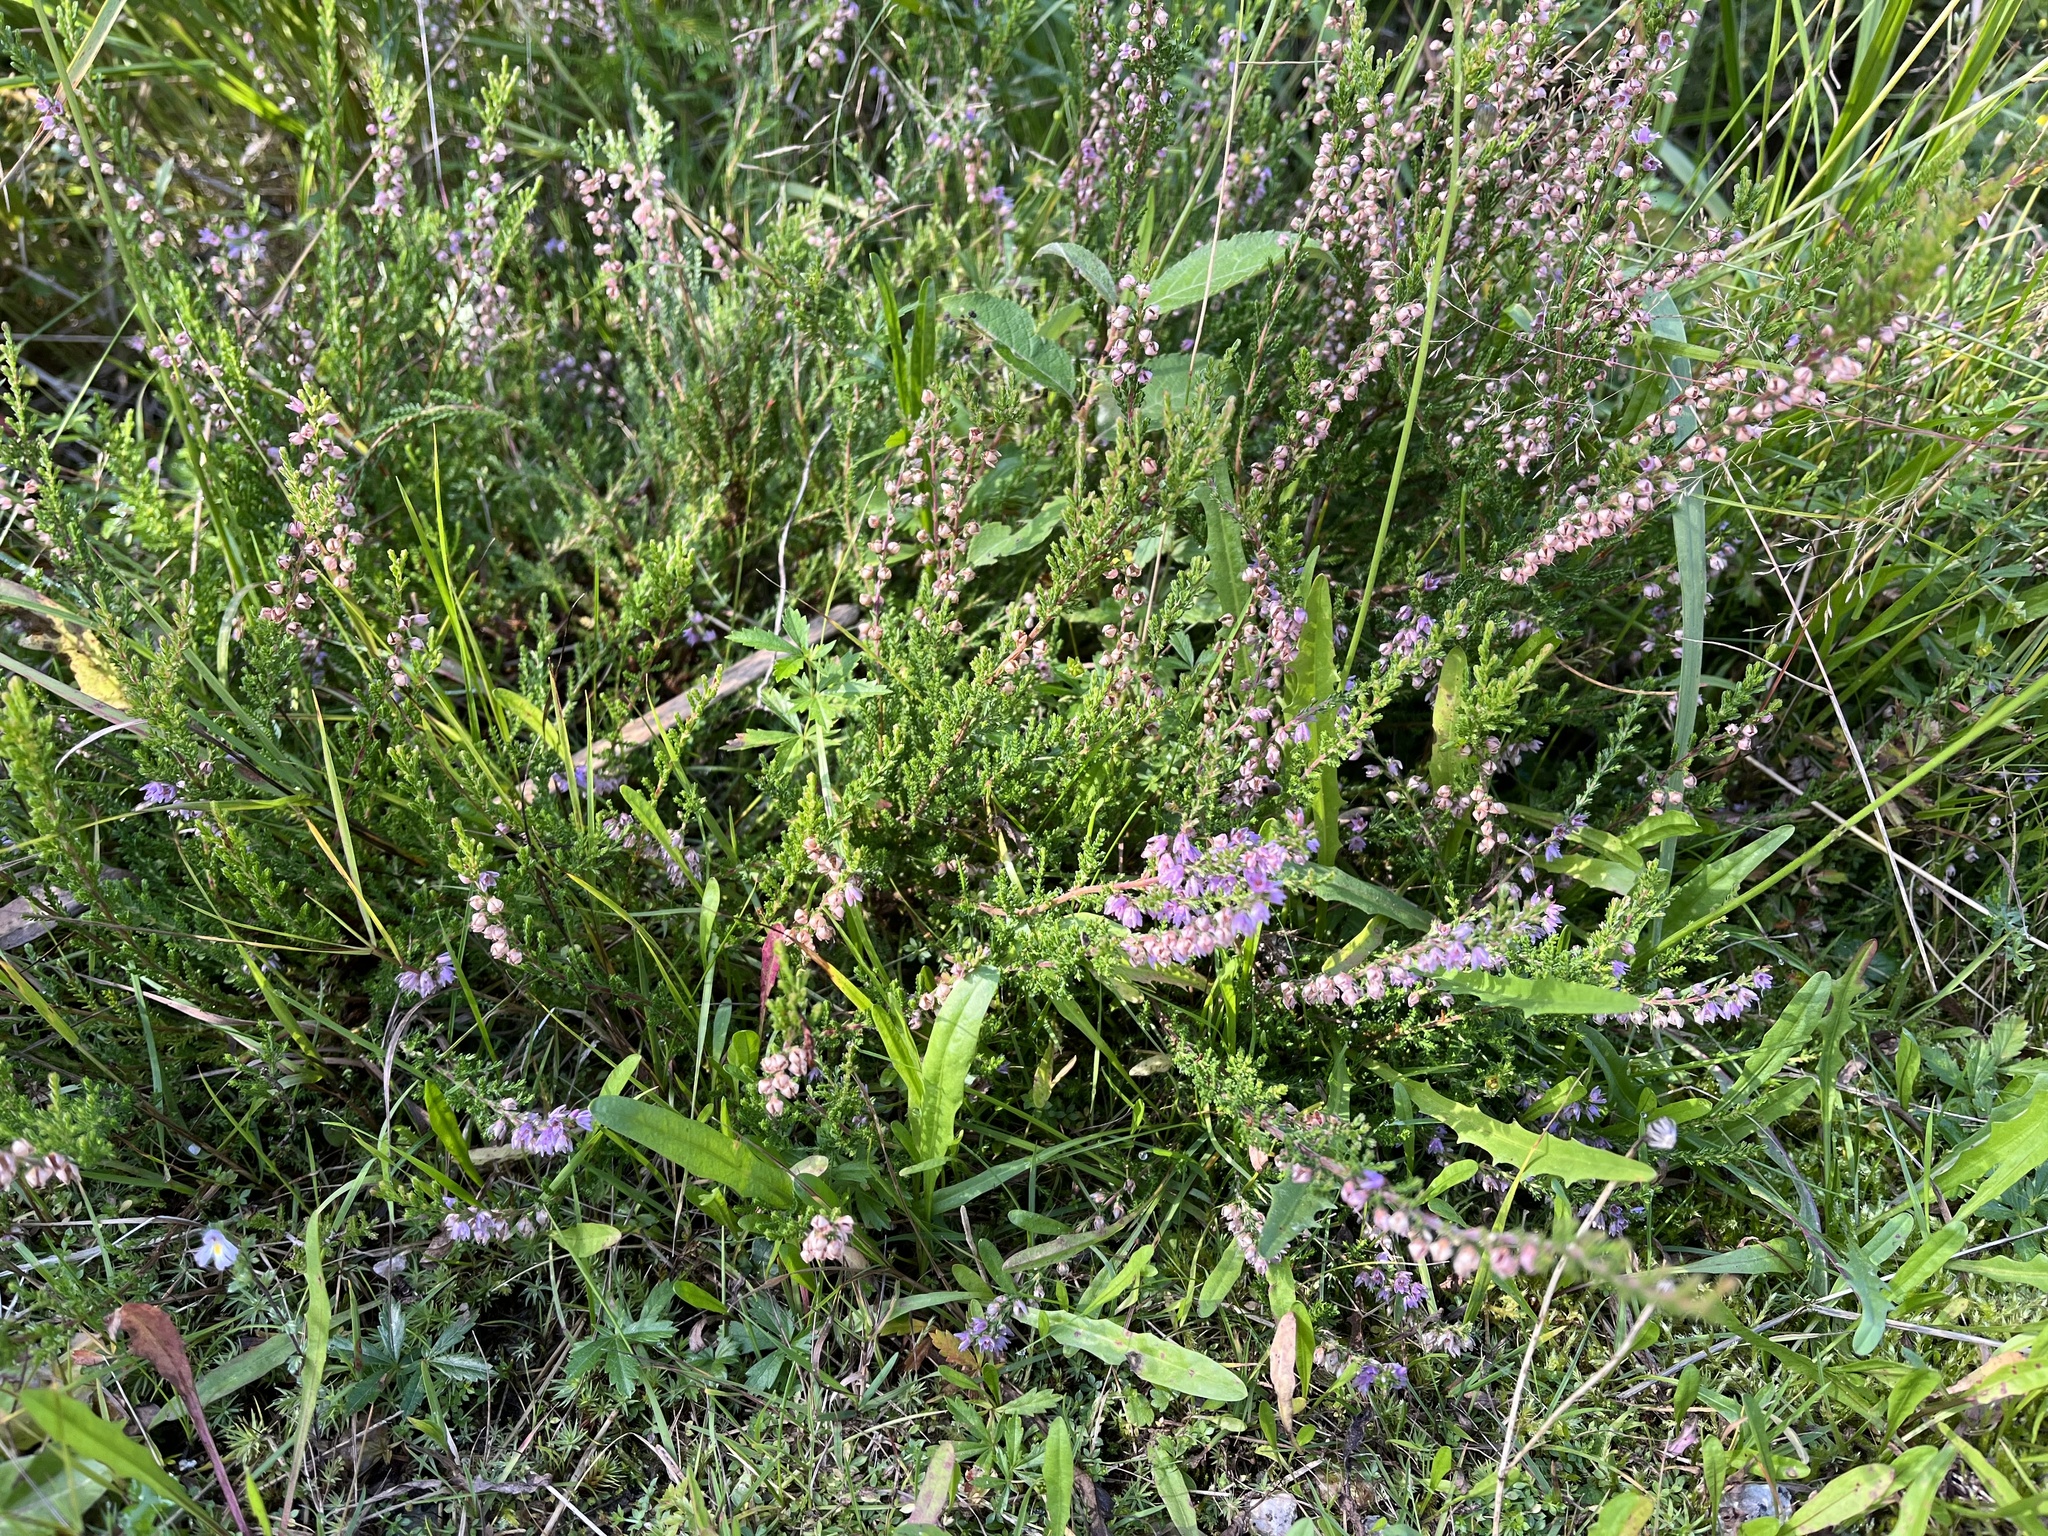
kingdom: Plantae
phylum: Tracheophyta
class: Magnoliopsida
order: Ericales
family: Ericaceae
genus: Calluna
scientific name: Calluna vulgaris
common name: Heather
